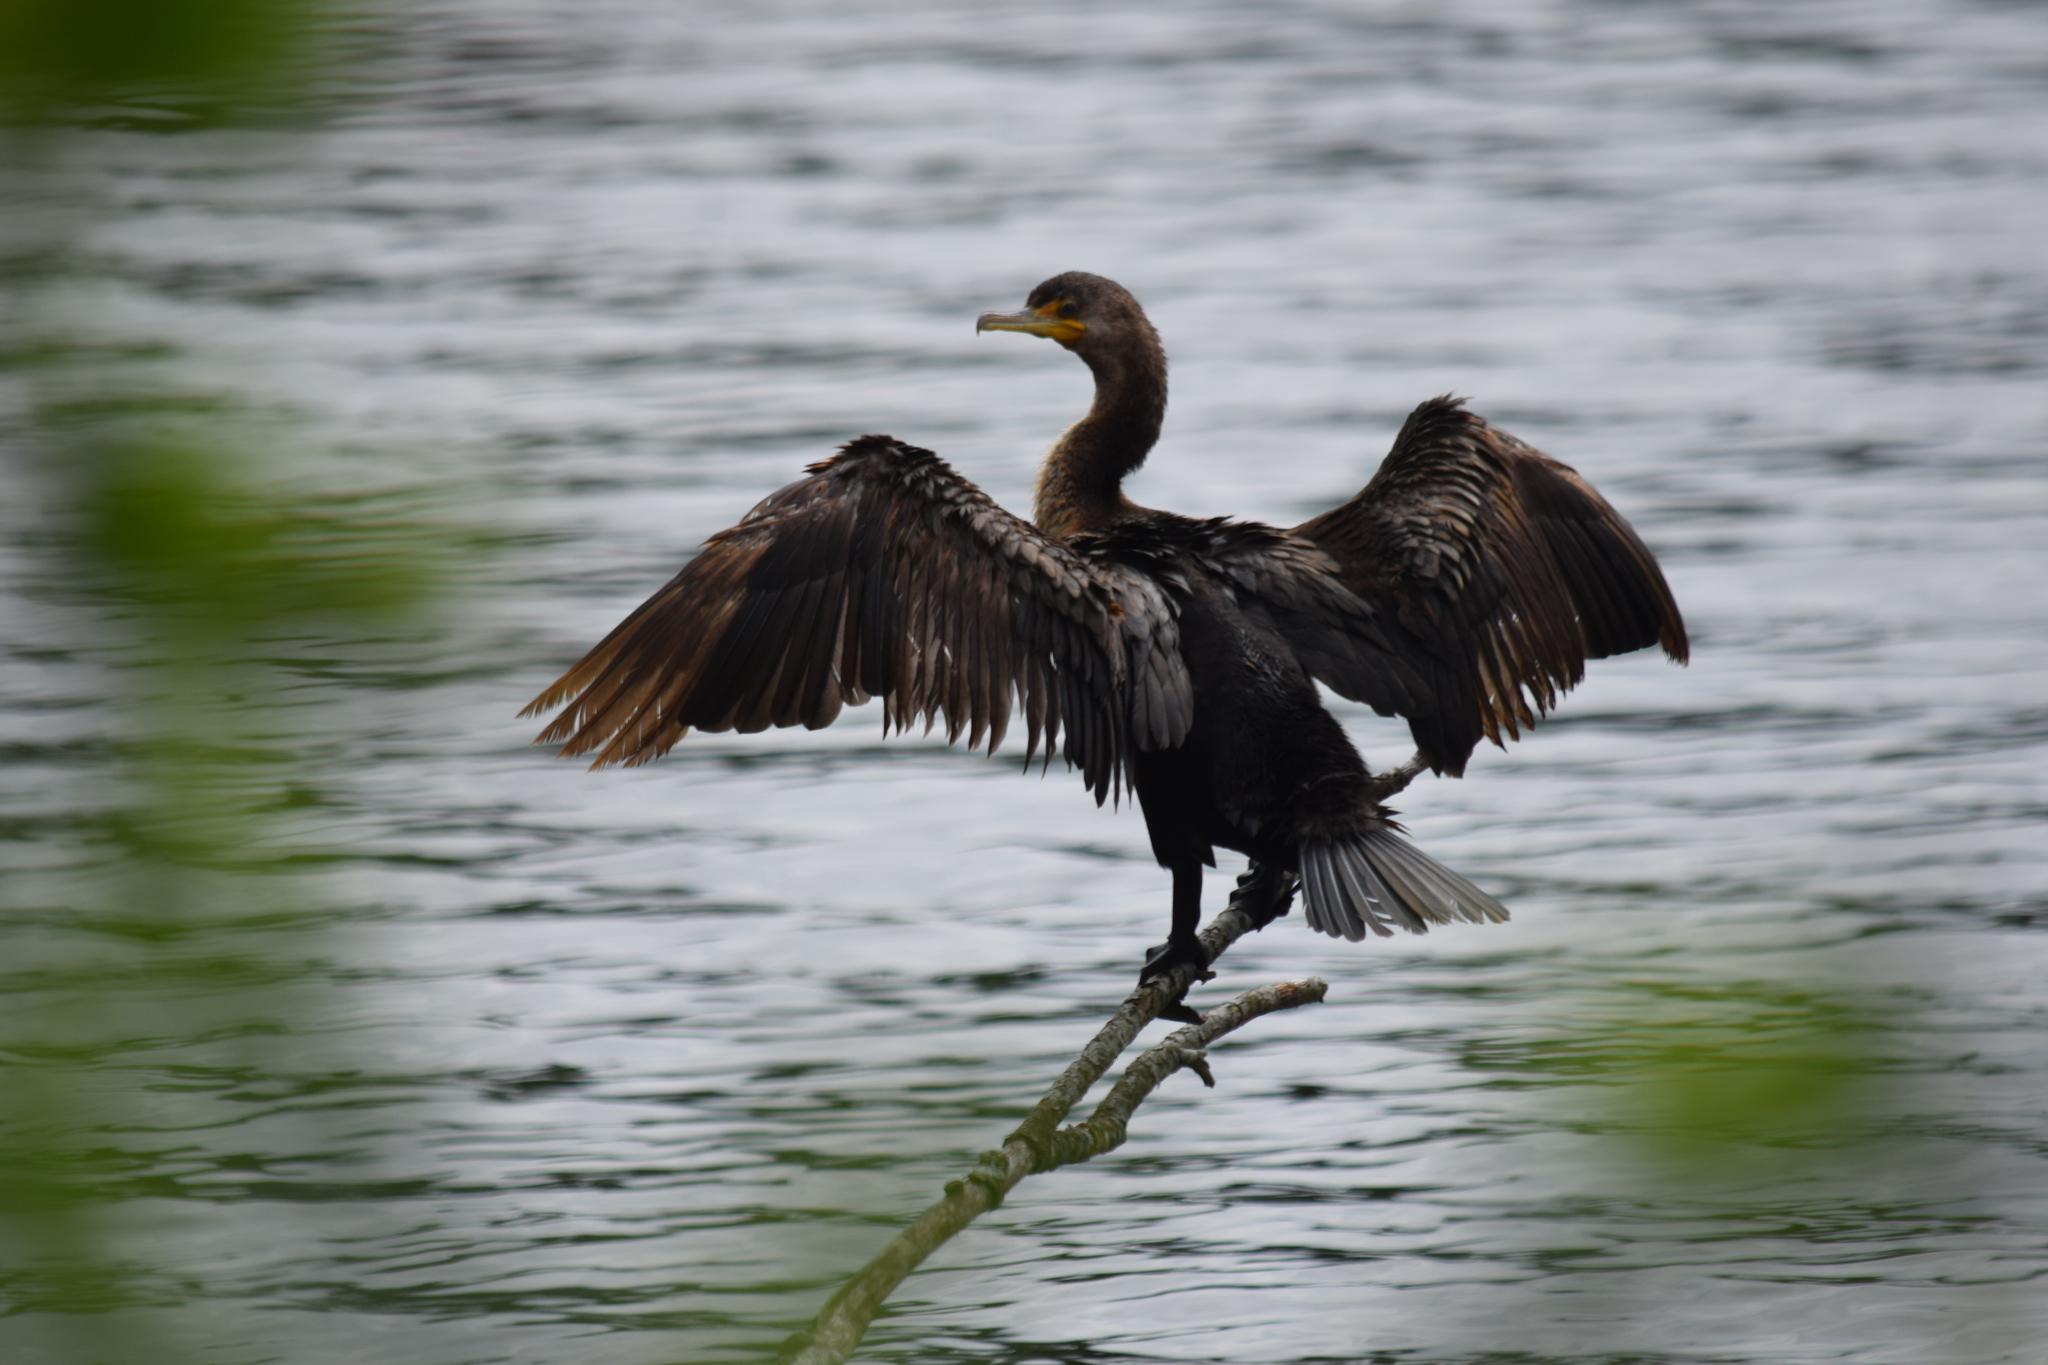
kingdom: Animalia
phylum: Chordata
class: Aves
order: Suliformes
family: Phalacrocoracidae
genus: Phalacrocorax
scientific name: Phalacrocorax auritus
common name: Double-crested cormorant
